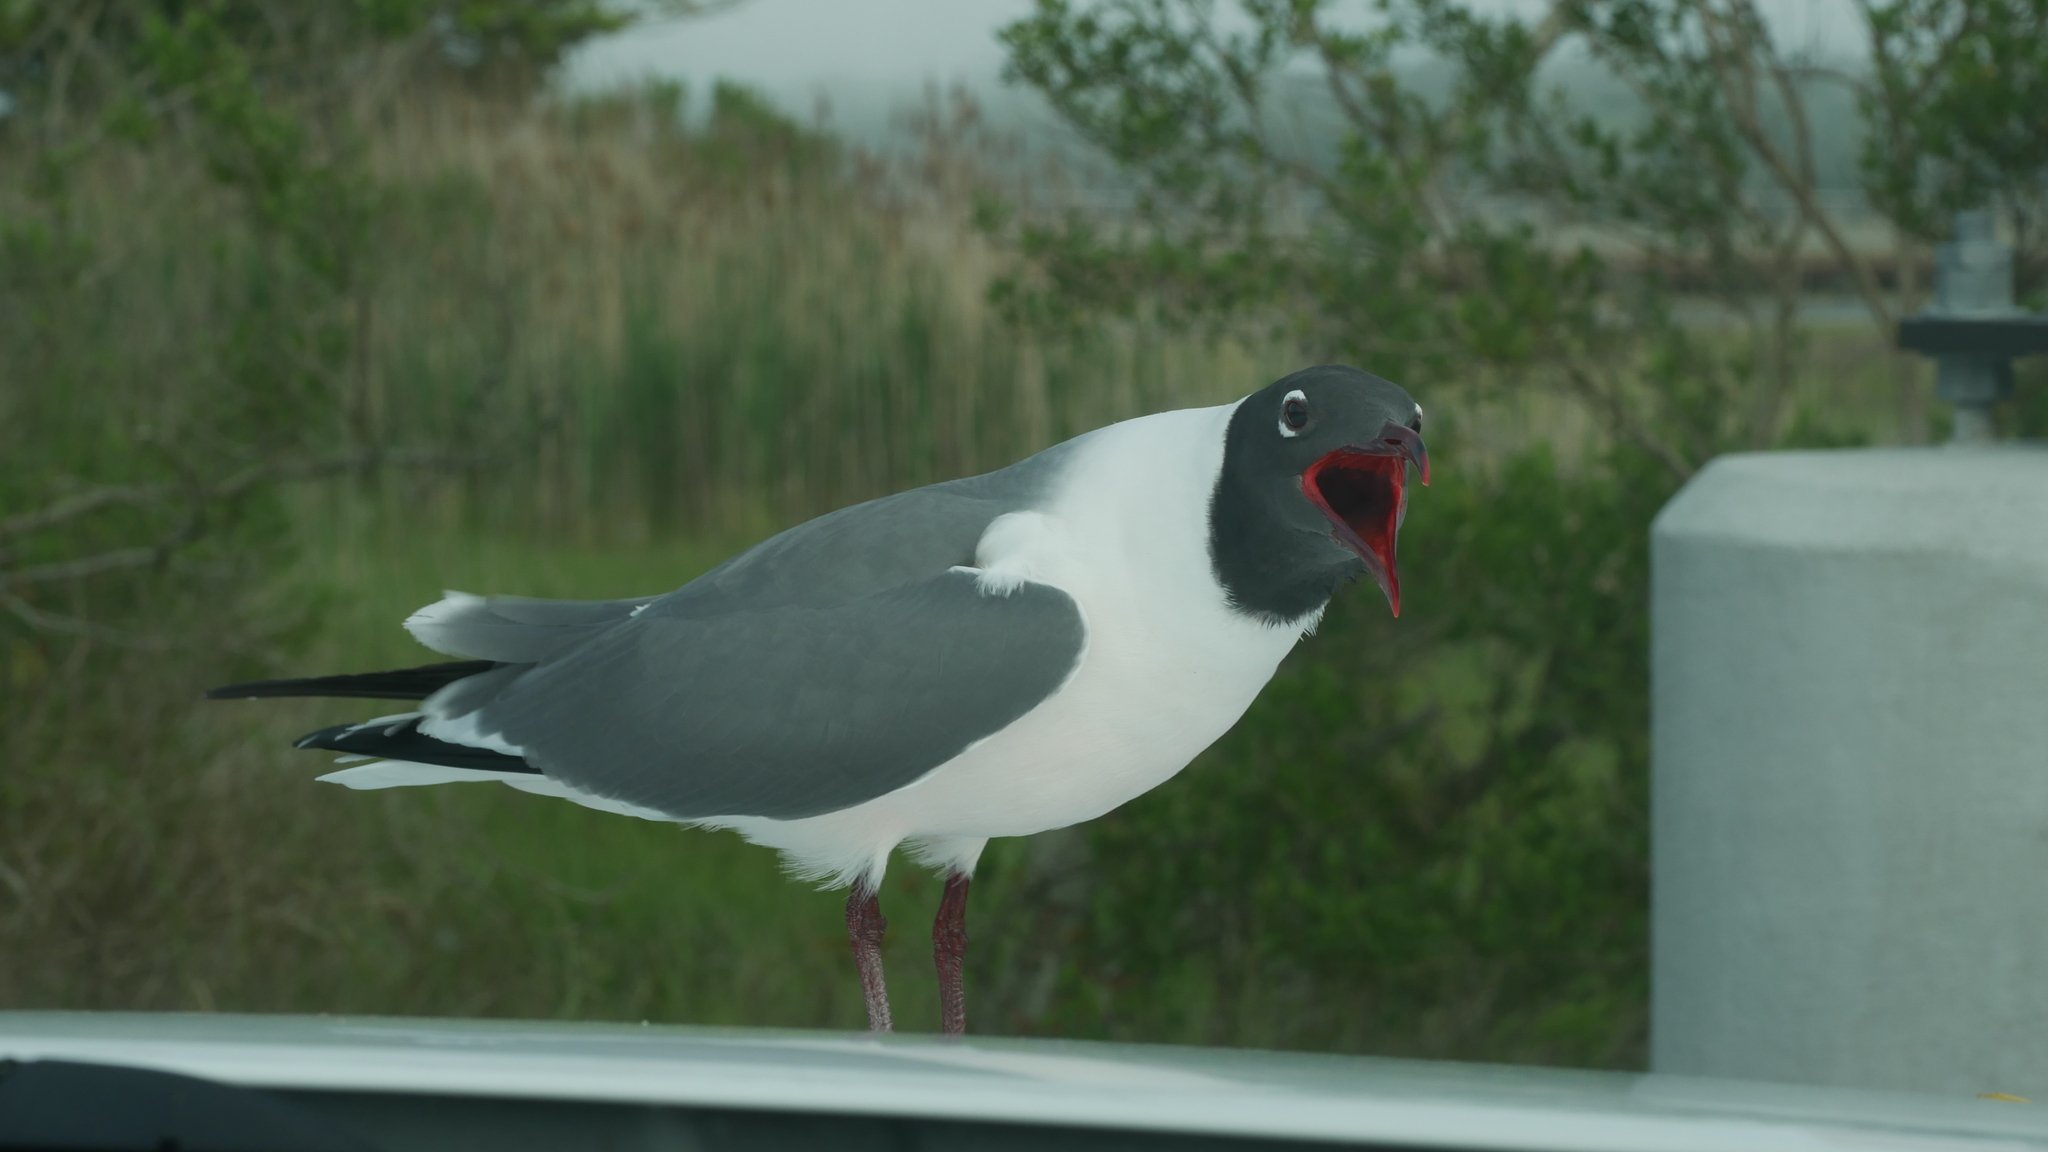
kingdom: Animalia
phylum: Chordata
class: Aves
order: Charadriiformes
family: Laridae
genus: Leucophaeus
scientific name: Leucophaeus atricilla
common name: Laughing gull
